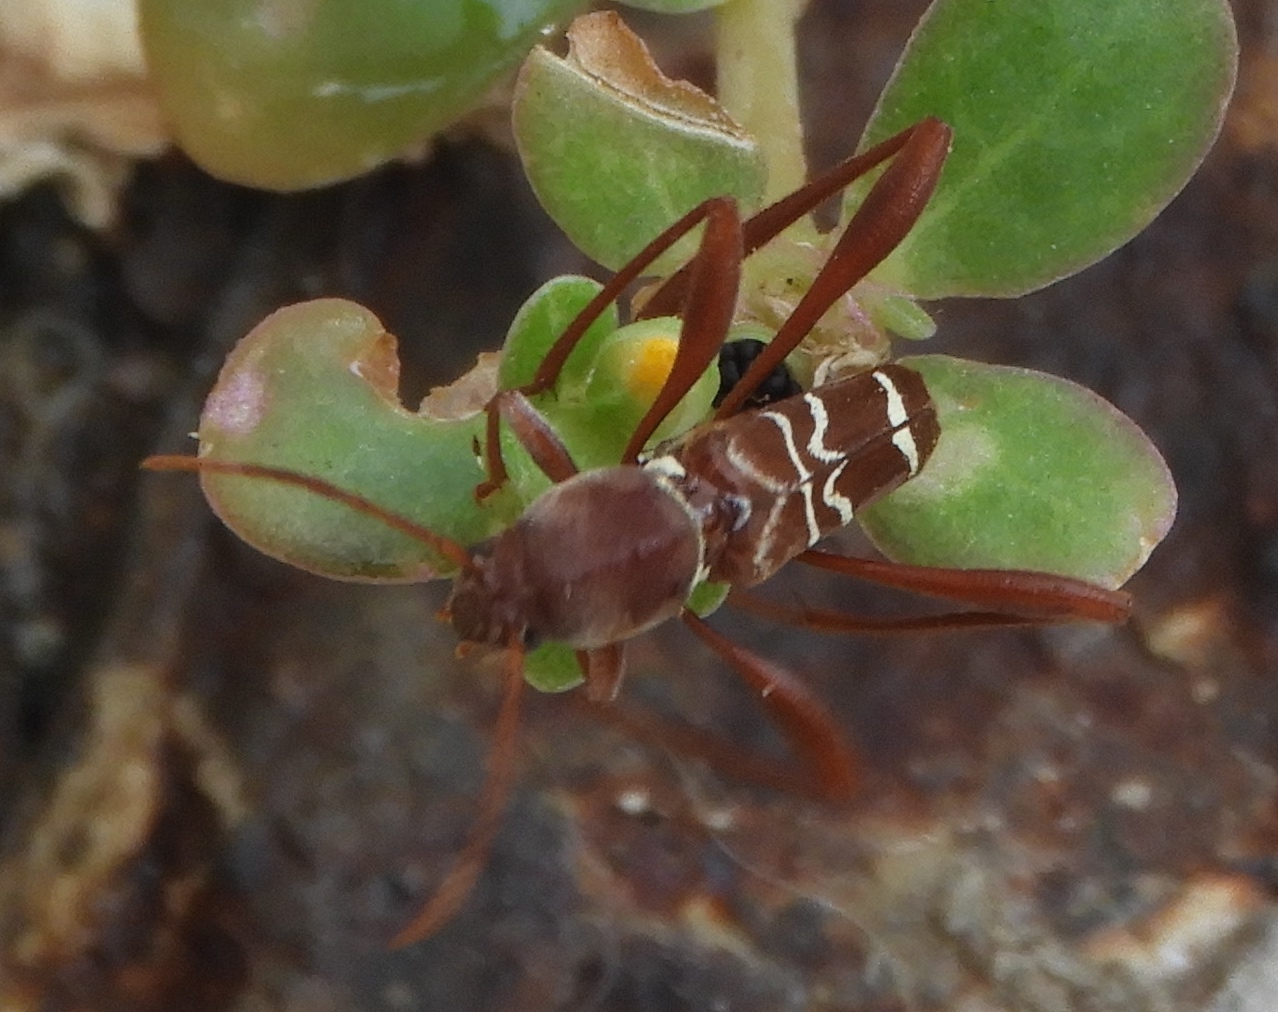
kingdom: Animalia
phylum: Arthropoda
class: Insecta
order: Coleoptera
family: Cerambycidae
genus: Neoclytus
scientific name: Neoclytus tenuiscriptus
